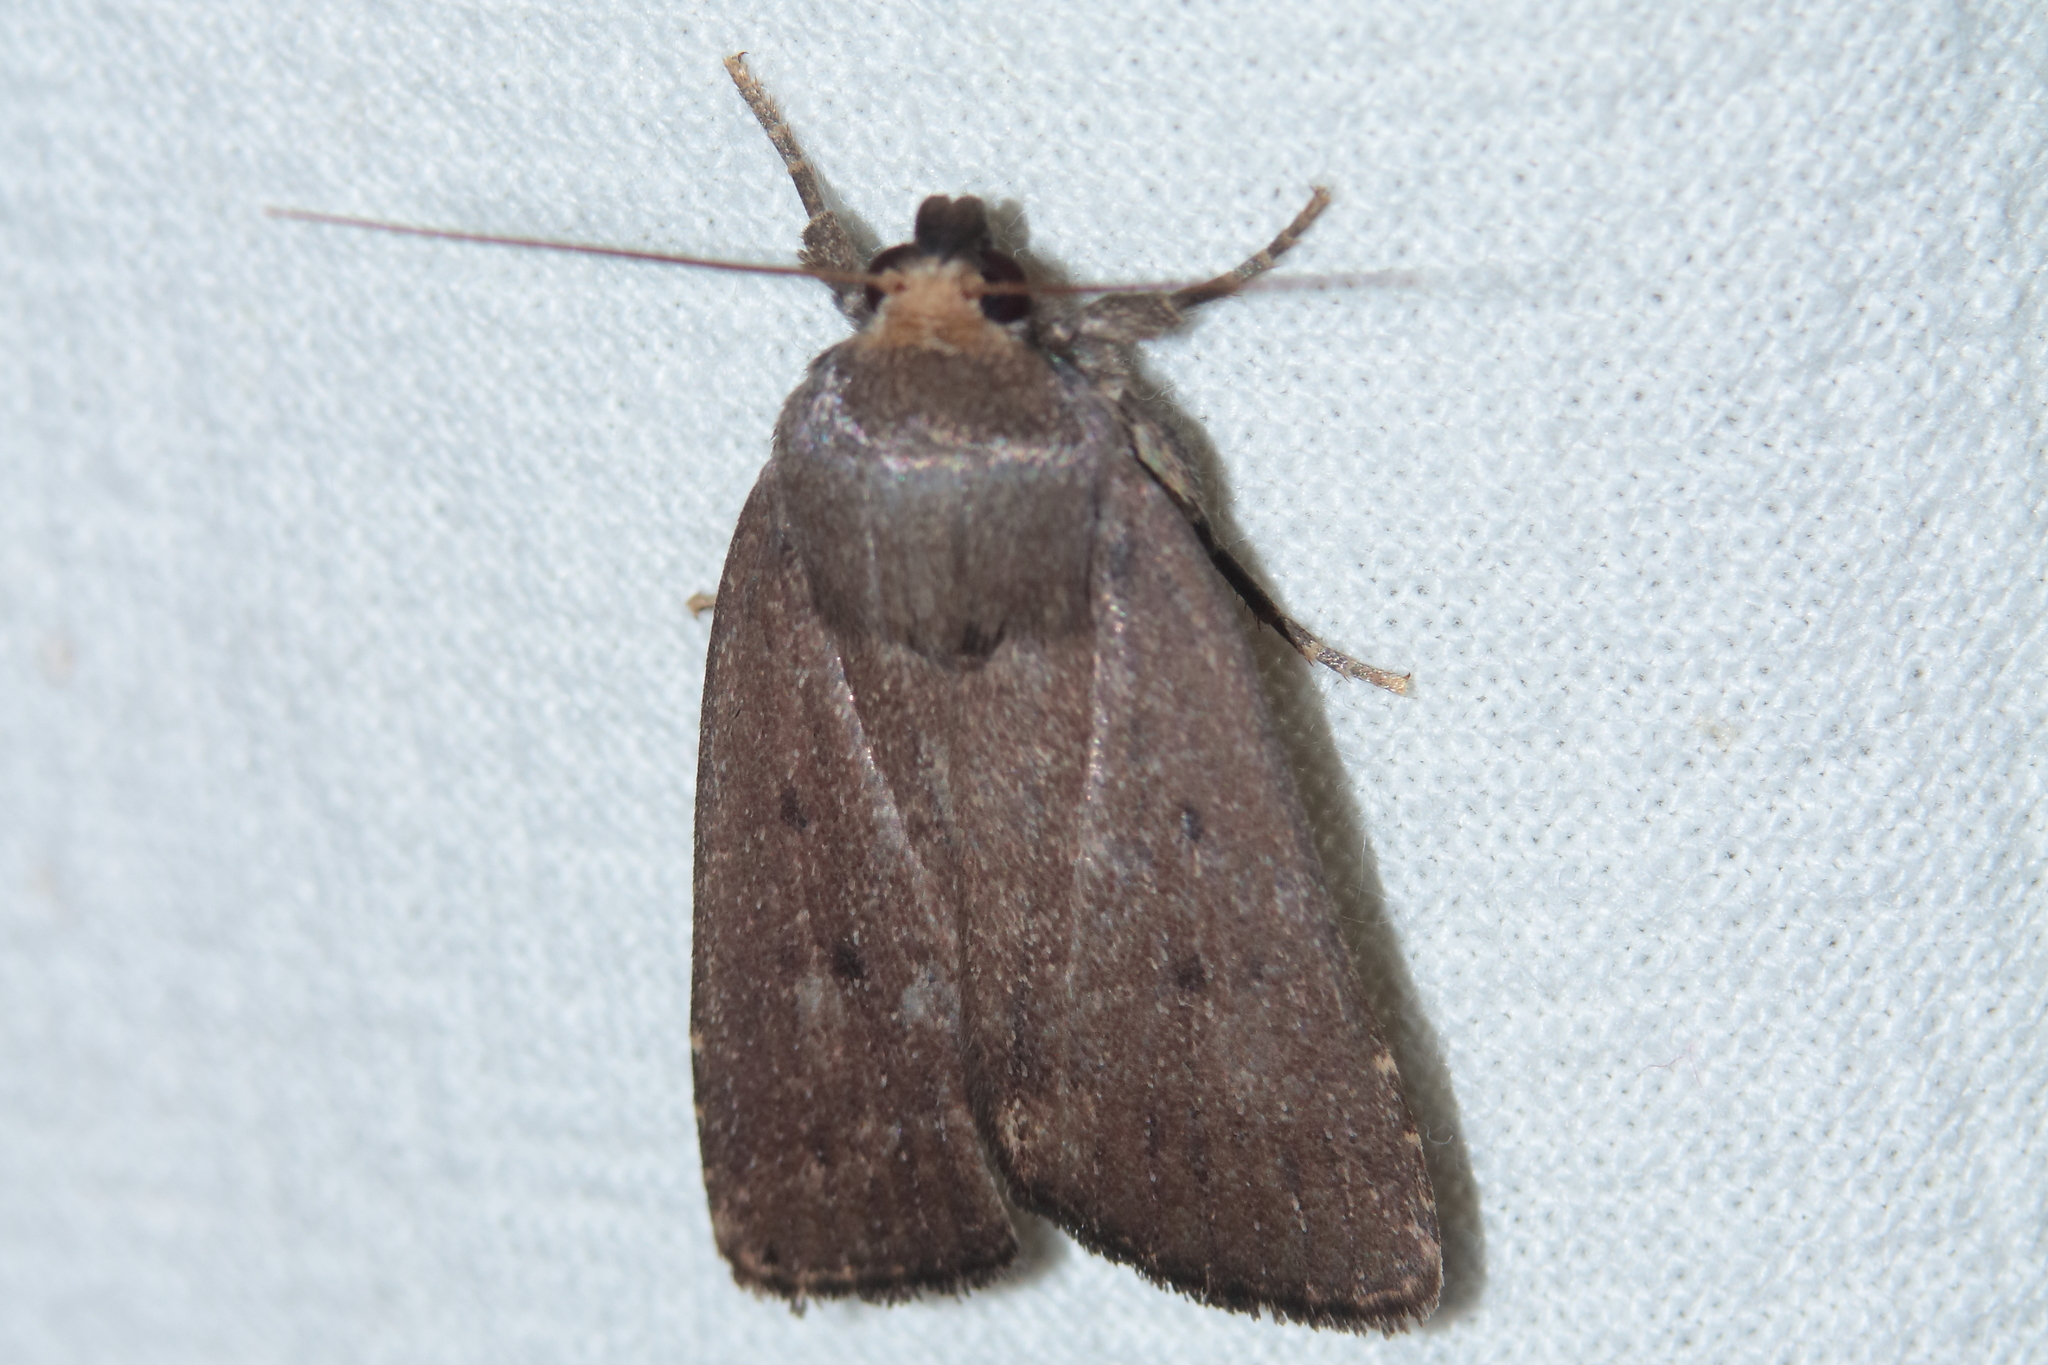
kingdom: Animalia
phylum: Arthropoda
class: Insecta
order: Lepidoptera
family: Noctuidae
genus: Amphipyra
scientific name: Amphipyra tragopoginis
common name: Mouse moth
